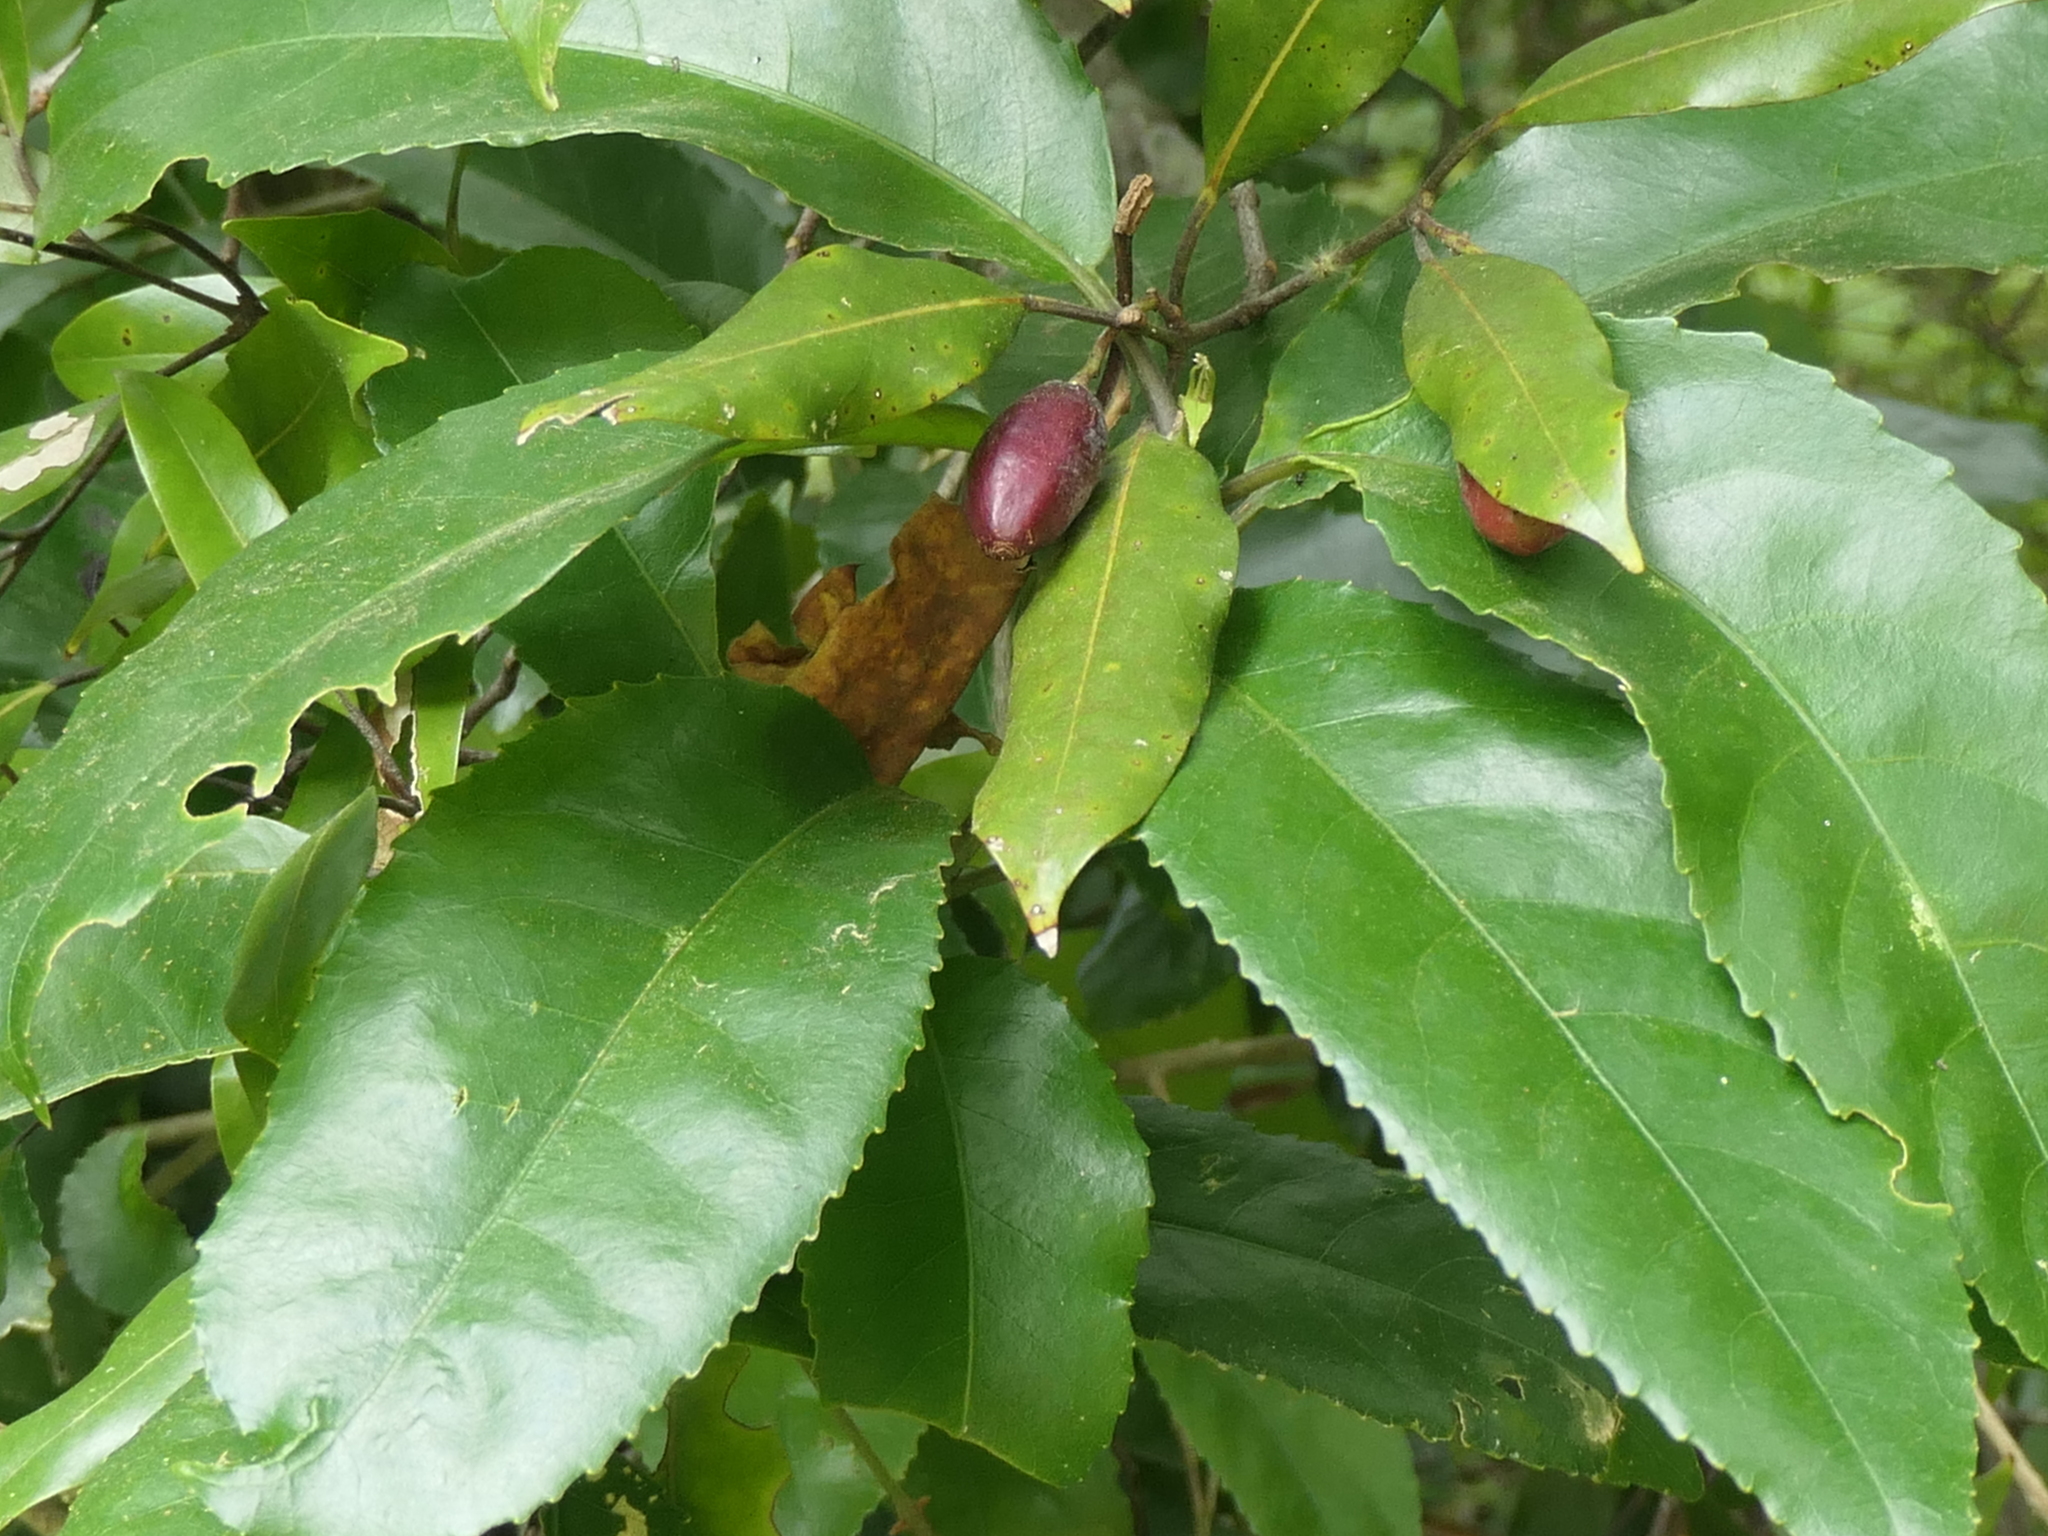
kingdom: Plantae
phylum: Tracheophyta
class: Magnoliopsida
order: Malpighiales
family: Violaceae
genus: Melicytus
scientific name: Melicytus ramiflorus
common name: Mahoe
